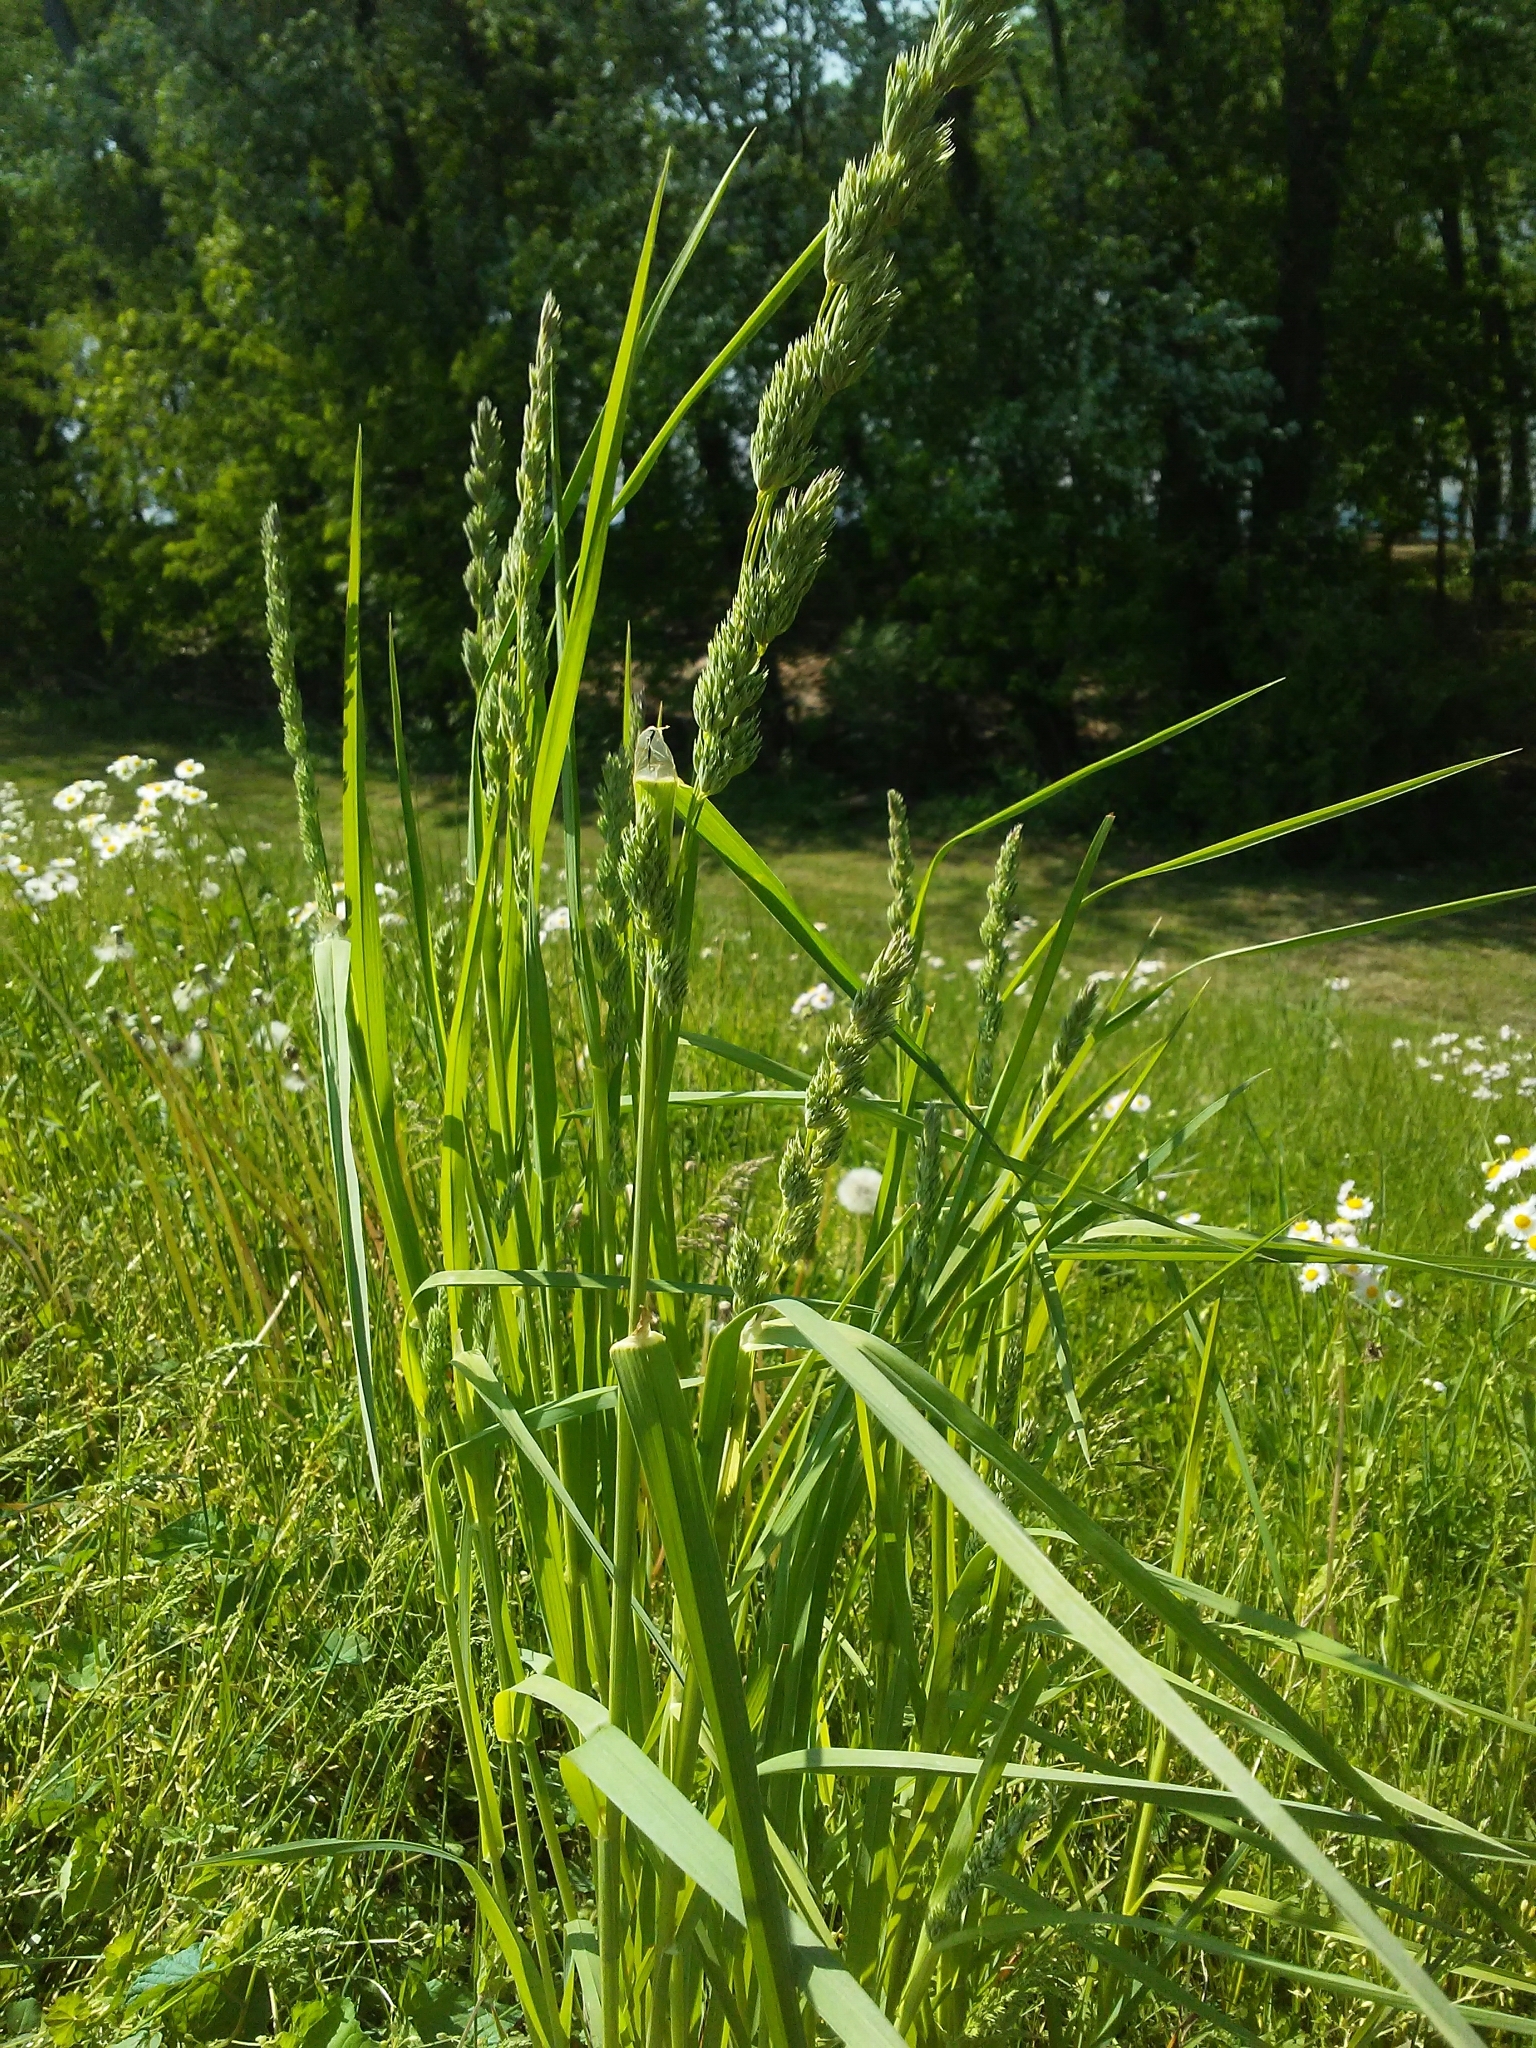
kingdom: Plantae
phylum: Tracheophyta
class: Liliopsida
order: Poales
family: Poaceae
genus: Dactylis
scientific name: Dactylis glomerata
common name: Orchardgrass
